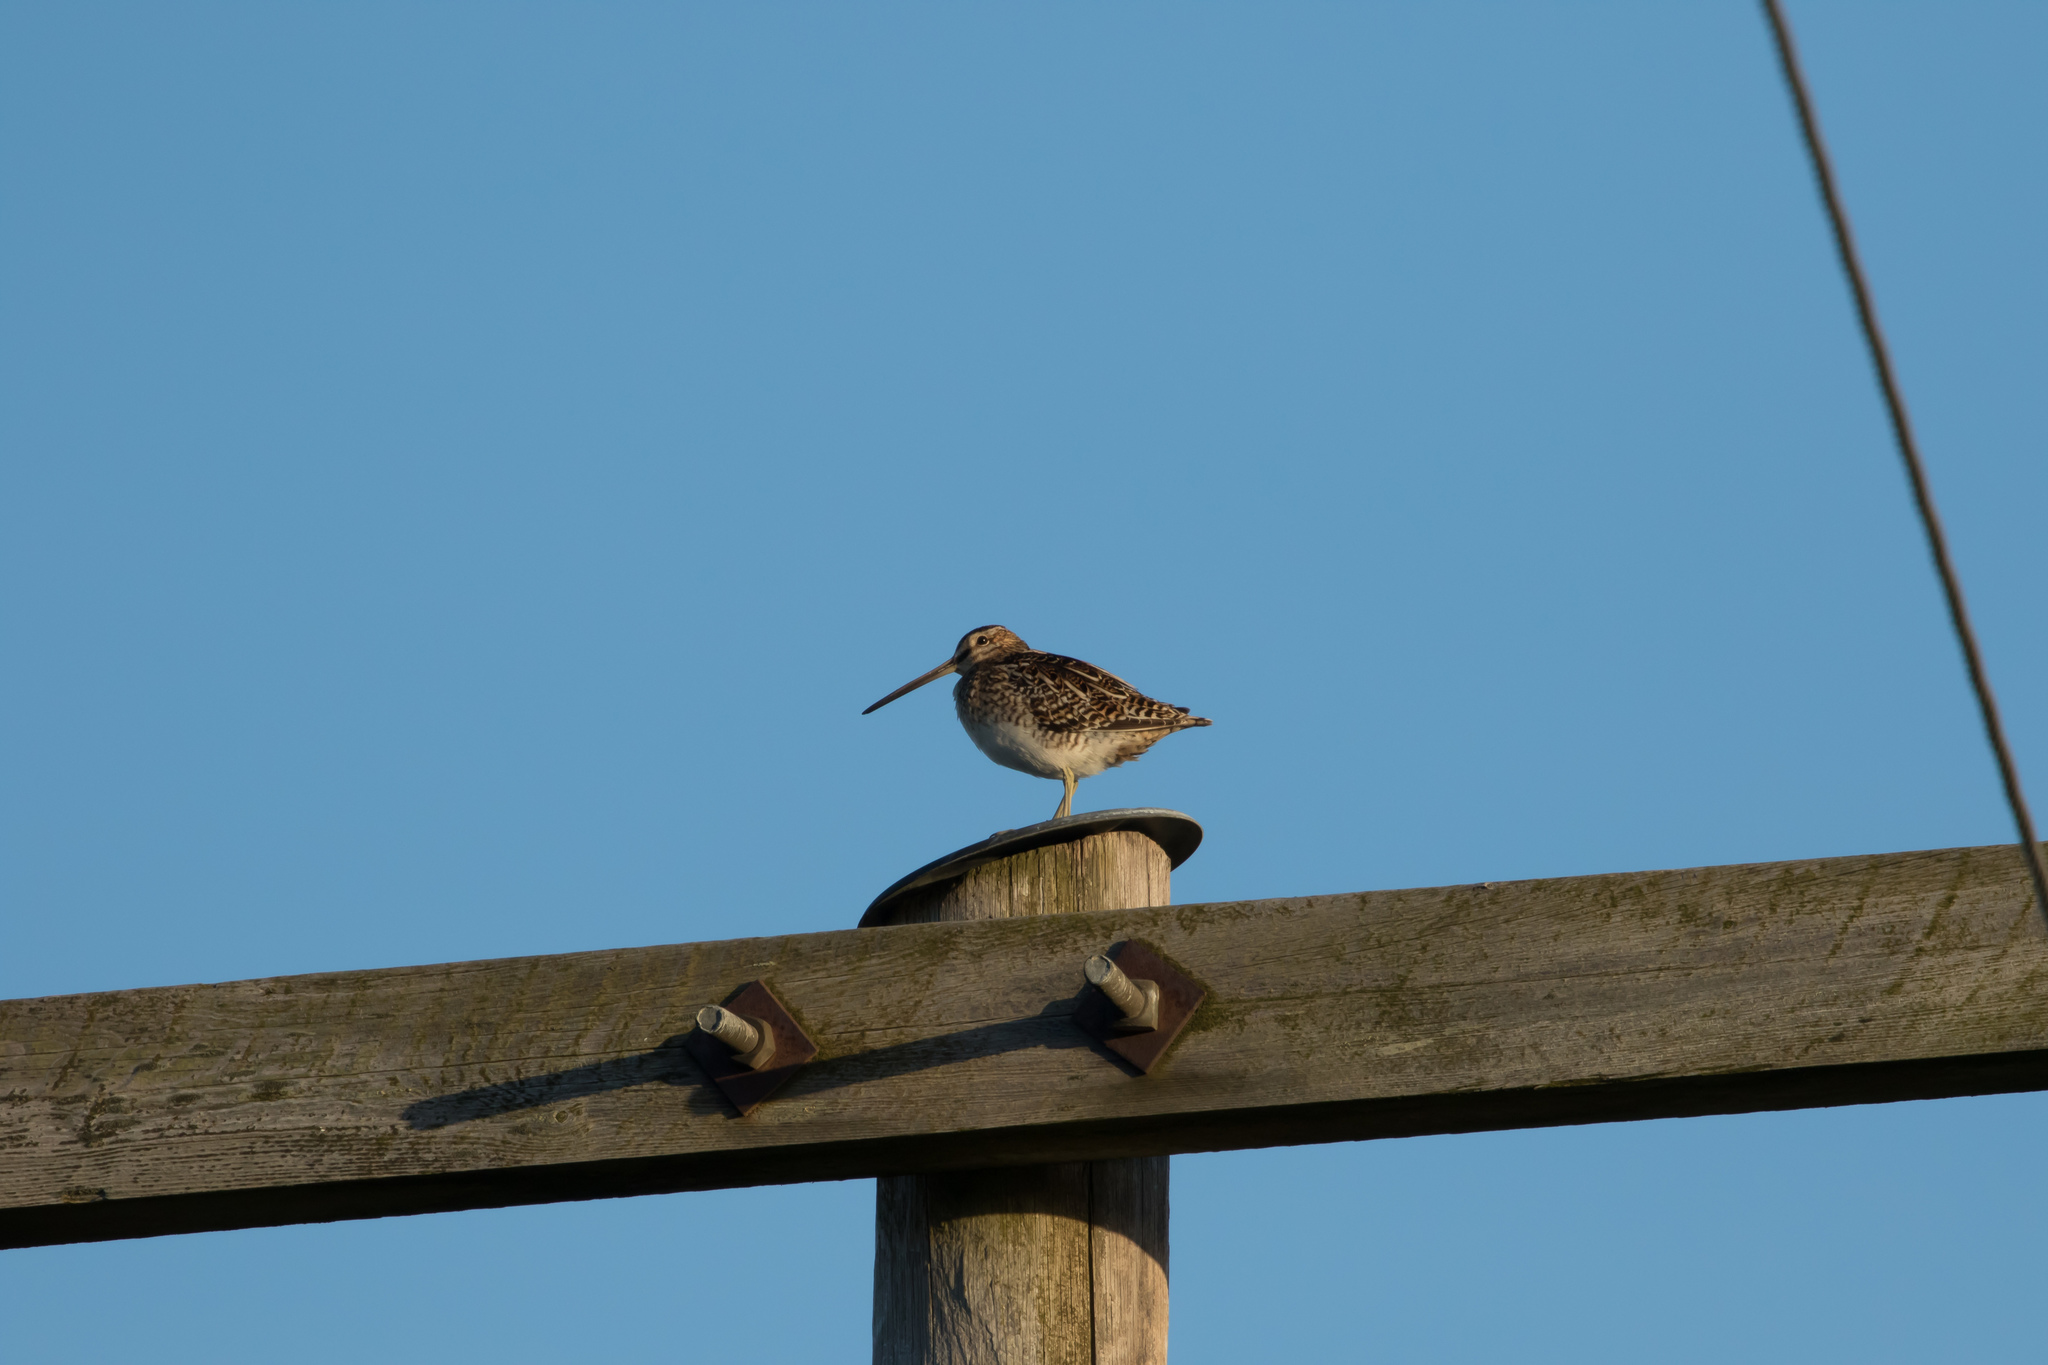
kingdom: Animalia
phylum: Chordata
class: Aves
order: Charadriiformes
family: Scolopacidae
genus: Gallinago
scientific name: Gallinago gallinago
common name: Common snipe
